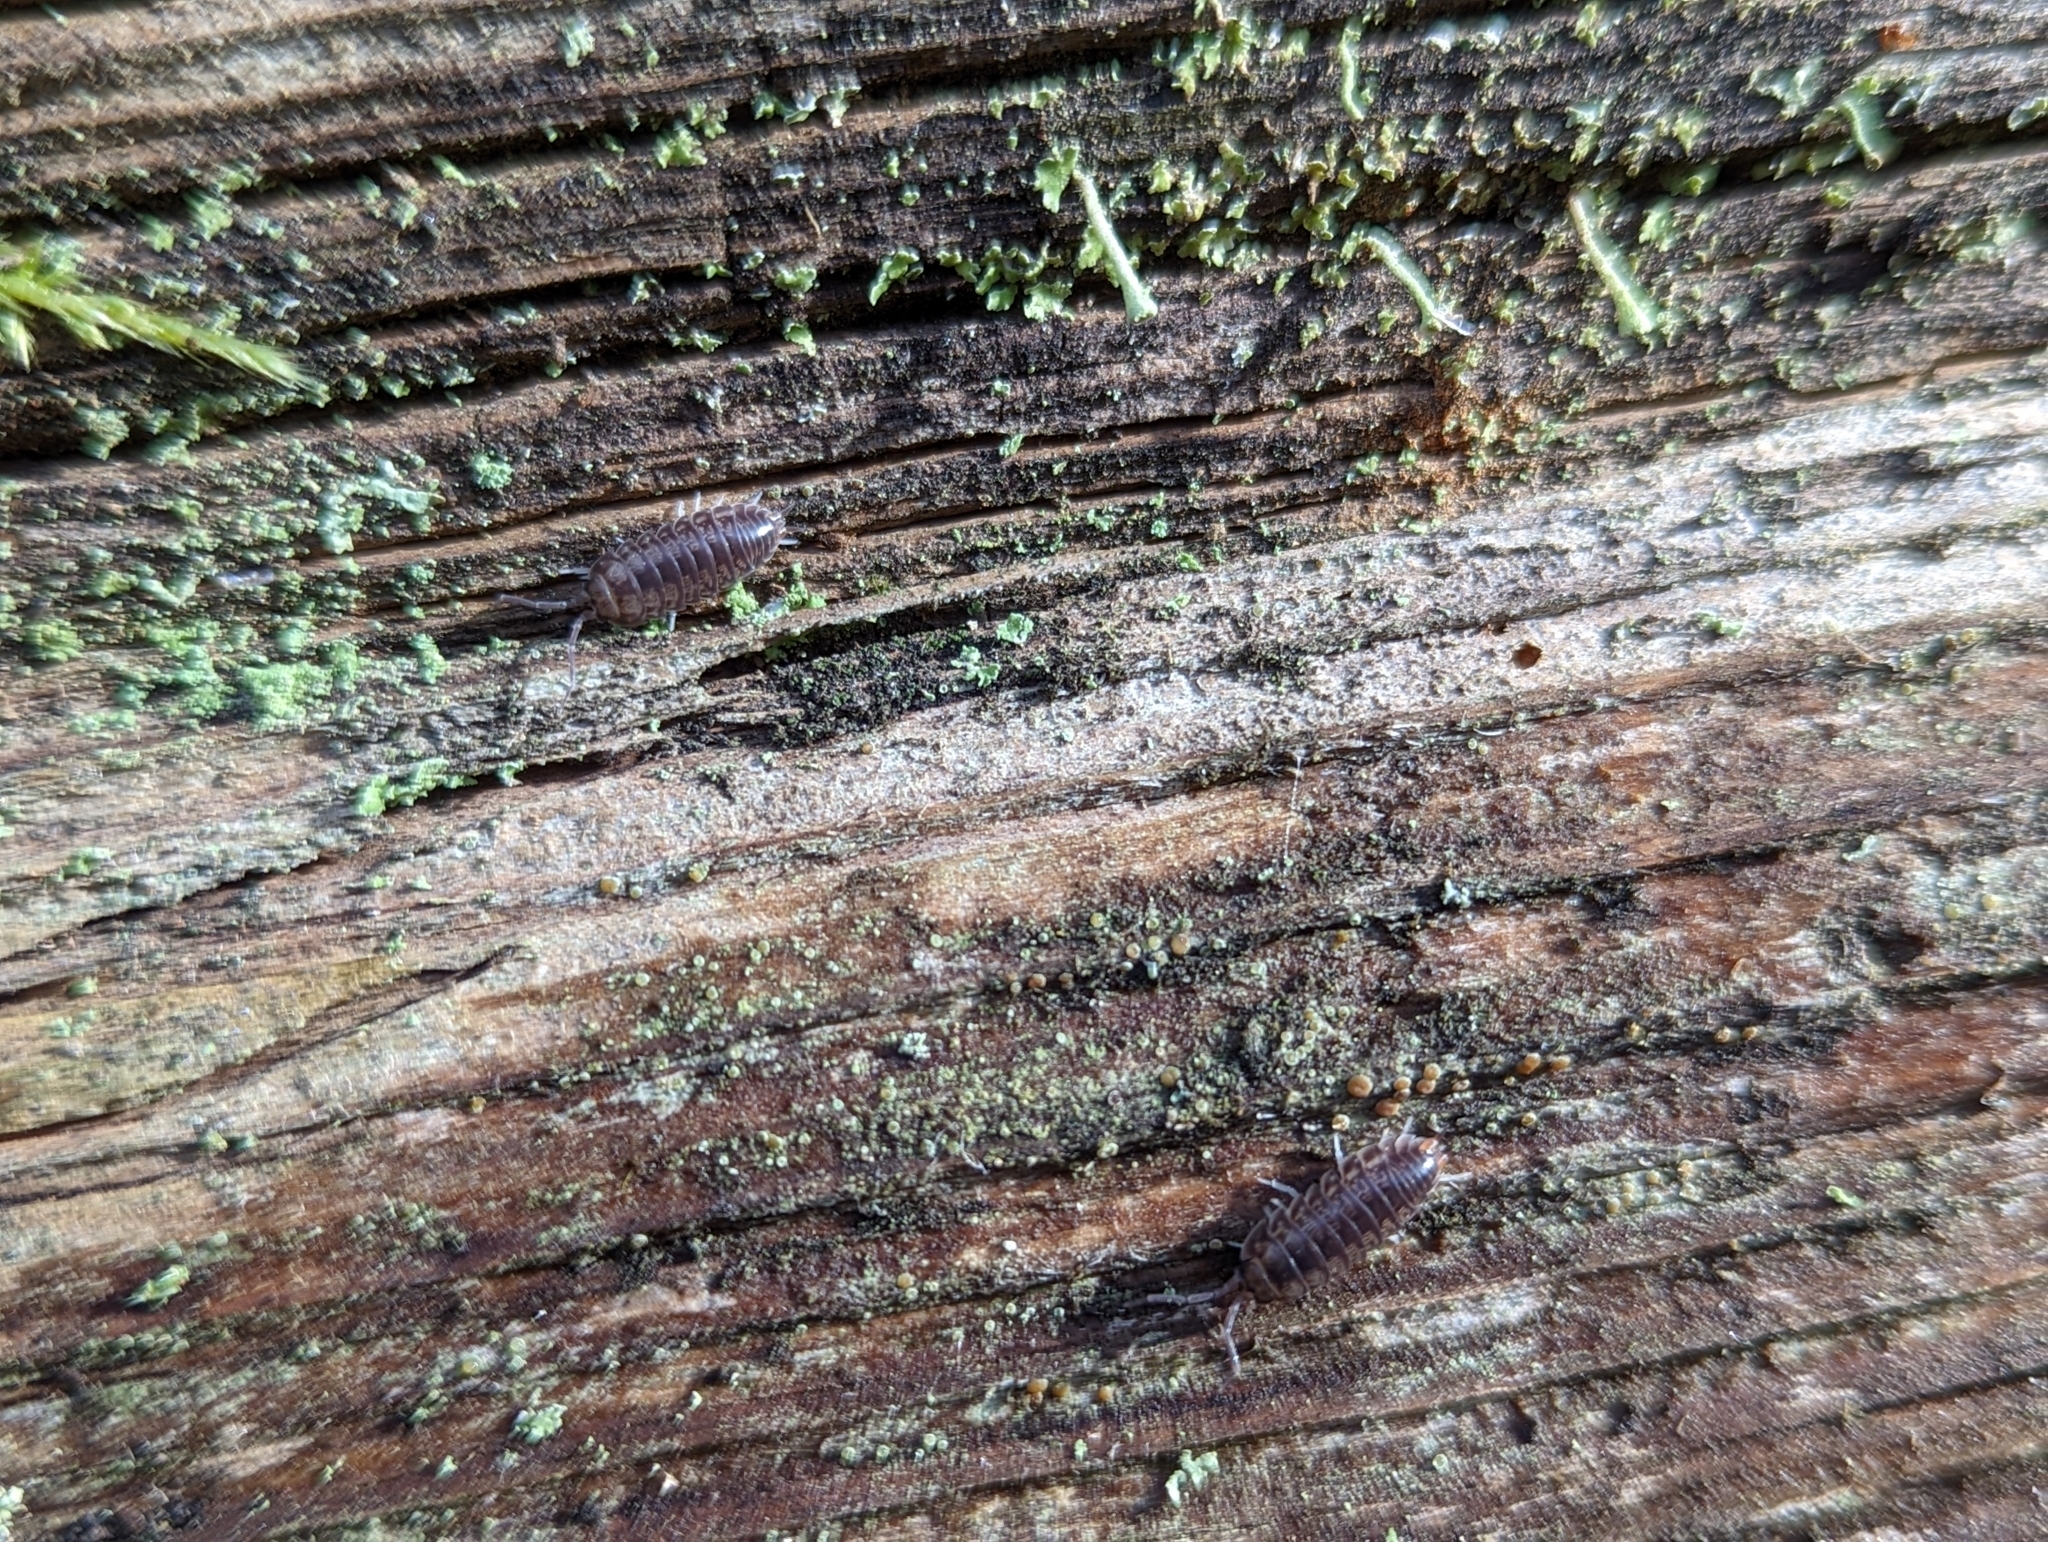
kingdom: Animalia
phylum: Arthropoda
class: Malacostraca
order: Isopoda
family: Cylisticidae
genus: Cylisticus
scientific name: Cylisticus convexus
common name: Curly woodlouse
